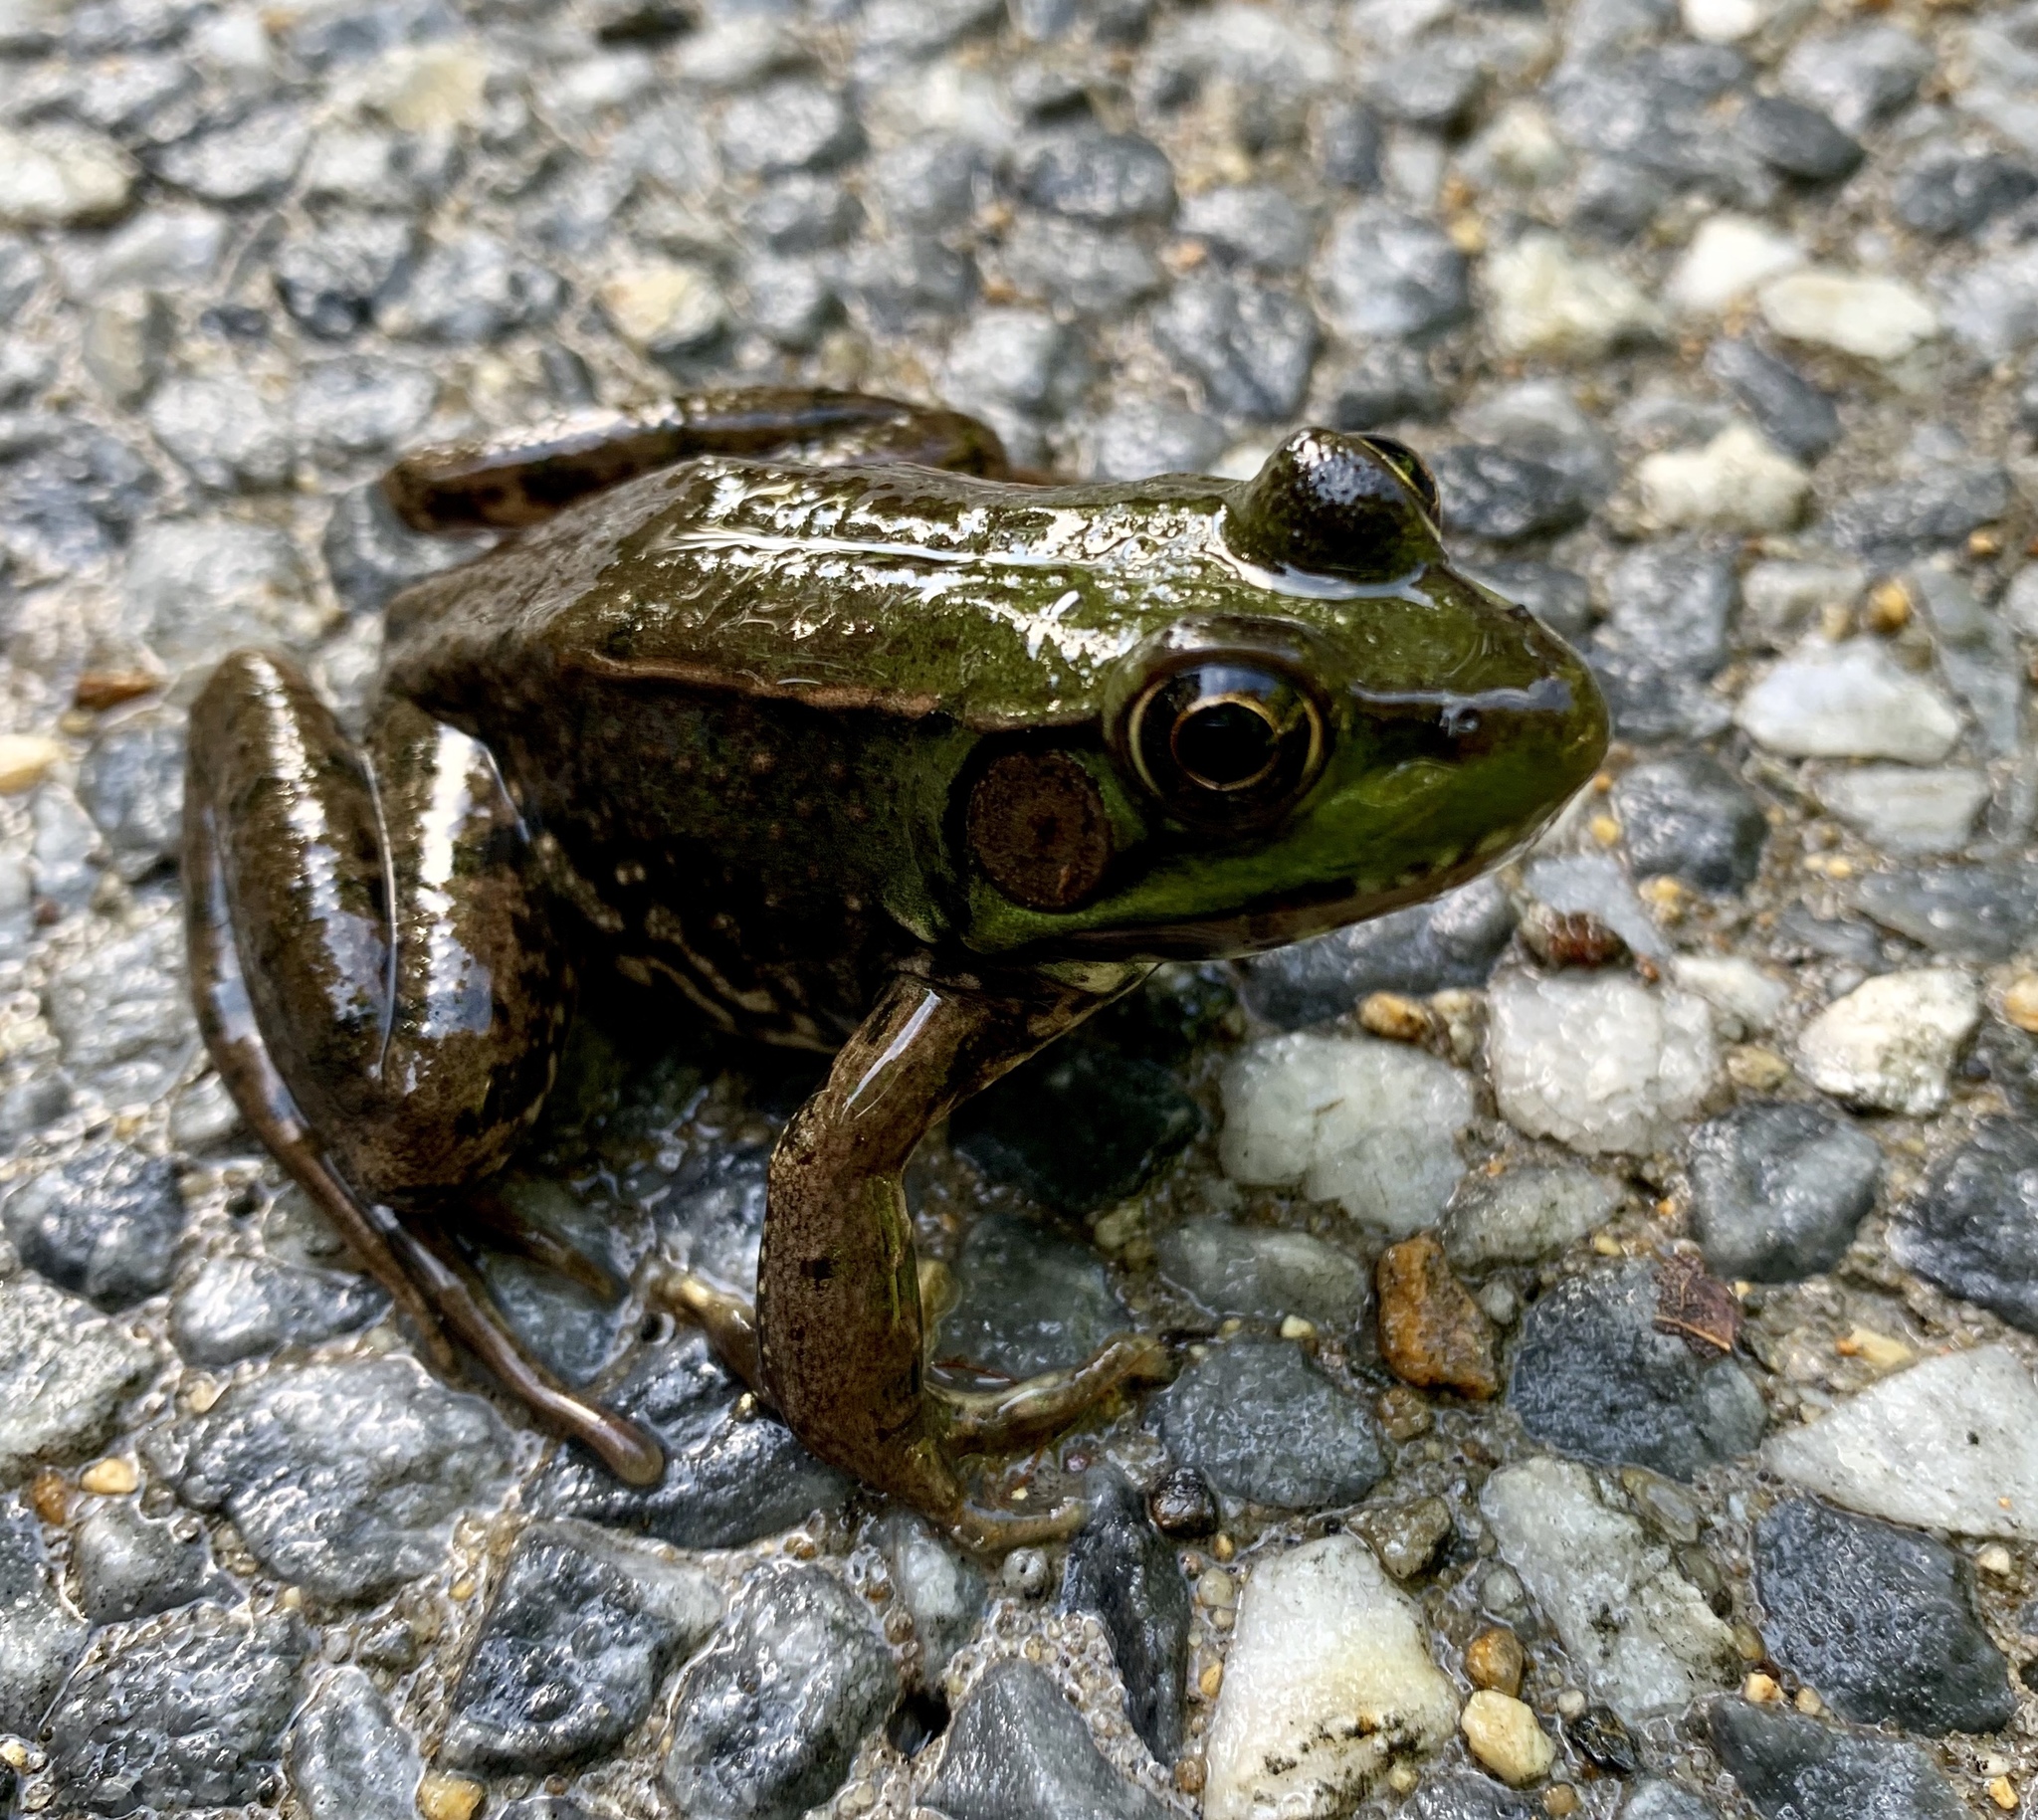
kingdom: Animalia
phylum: Chordata
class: Amphibia
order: Anura
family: Ranidae
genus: Lithobates
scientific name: Lithobates clamitans
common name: Green frog
